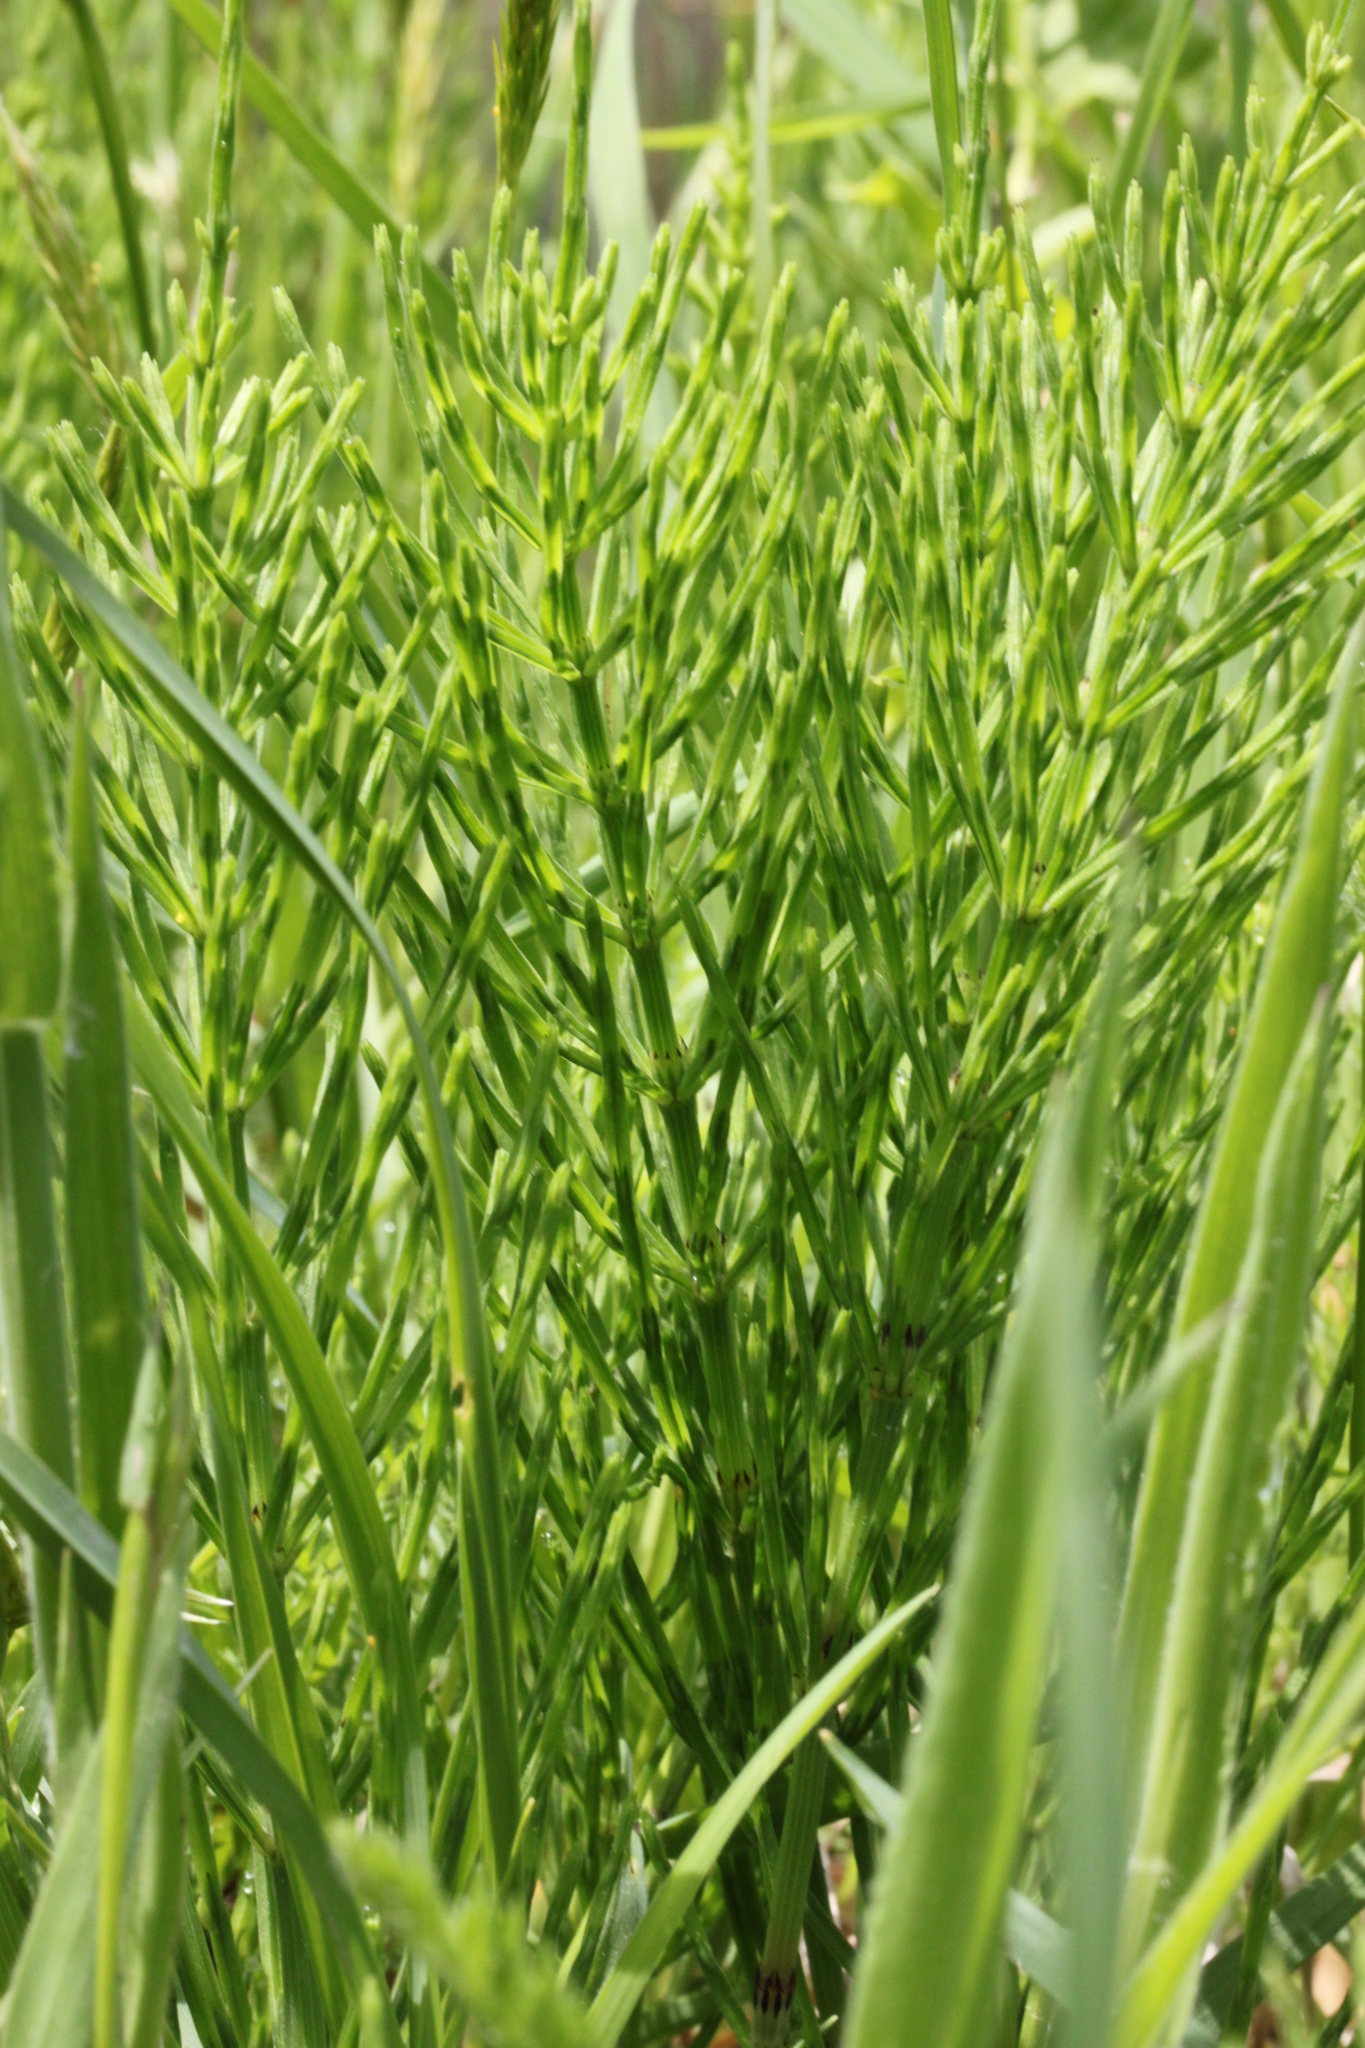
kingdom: Plantae
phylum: Tracheophyta
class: Polypodiopsida
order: Equisetales
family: Equisetaceae
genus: Equisetum
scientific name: Equisetum
